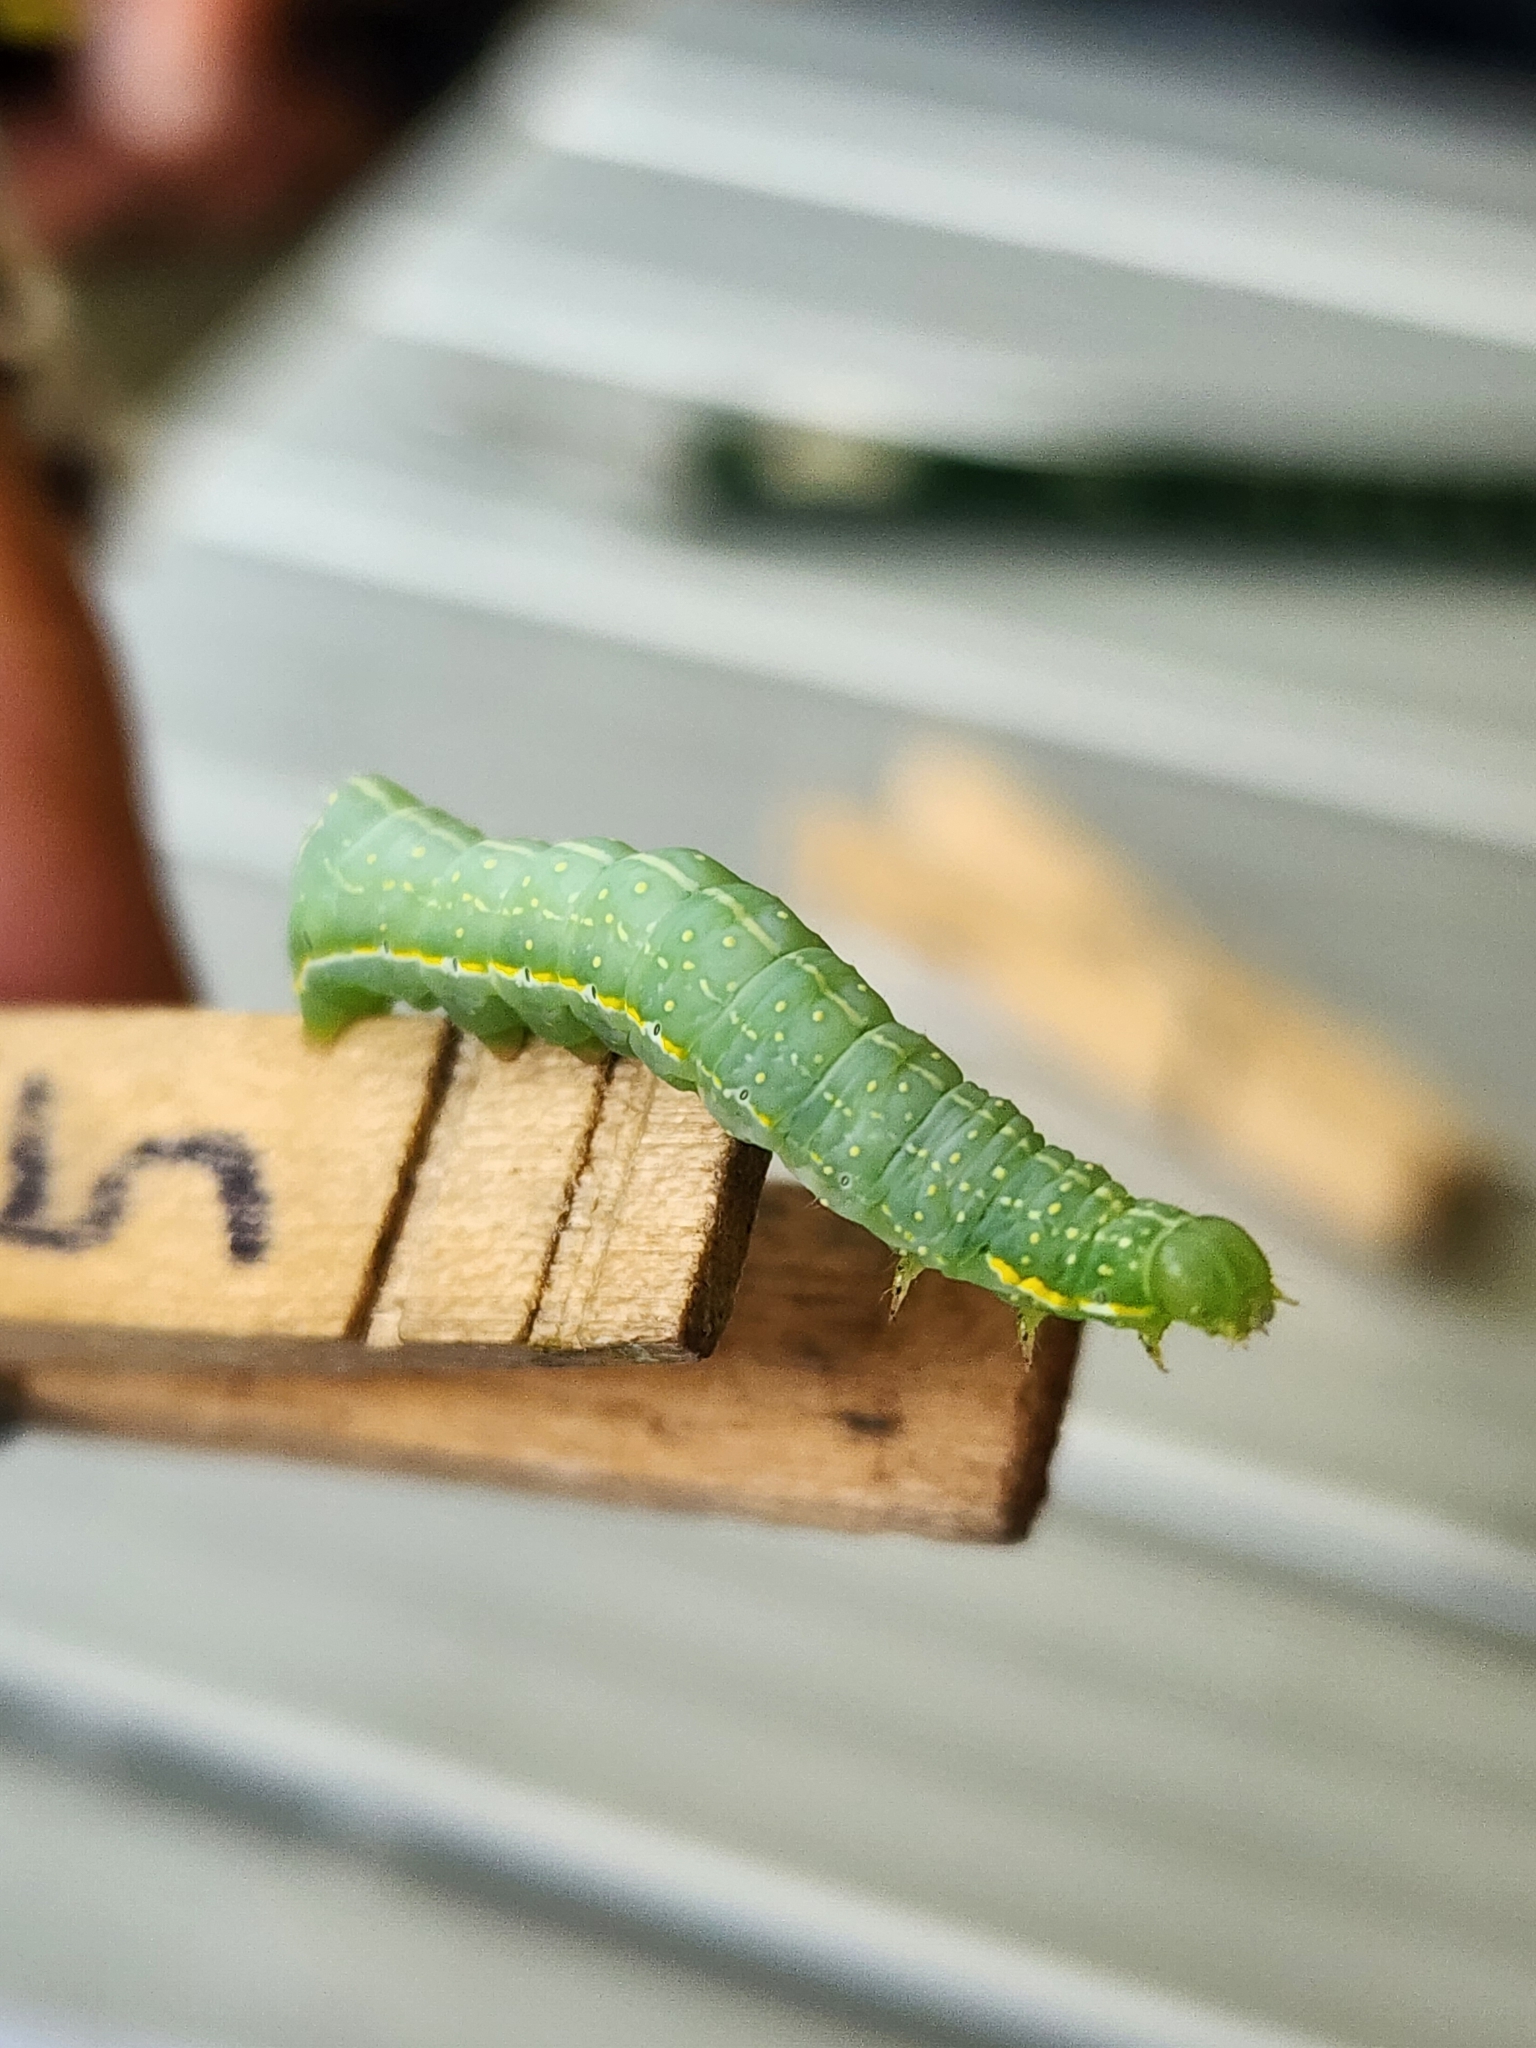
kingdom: Animalia
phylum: Arthropoda
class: Insecta
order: Lepidoptera
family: Noctuidae
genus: Amphipyra
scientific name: Amphipyra pyramidoides
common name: American copper underwing
